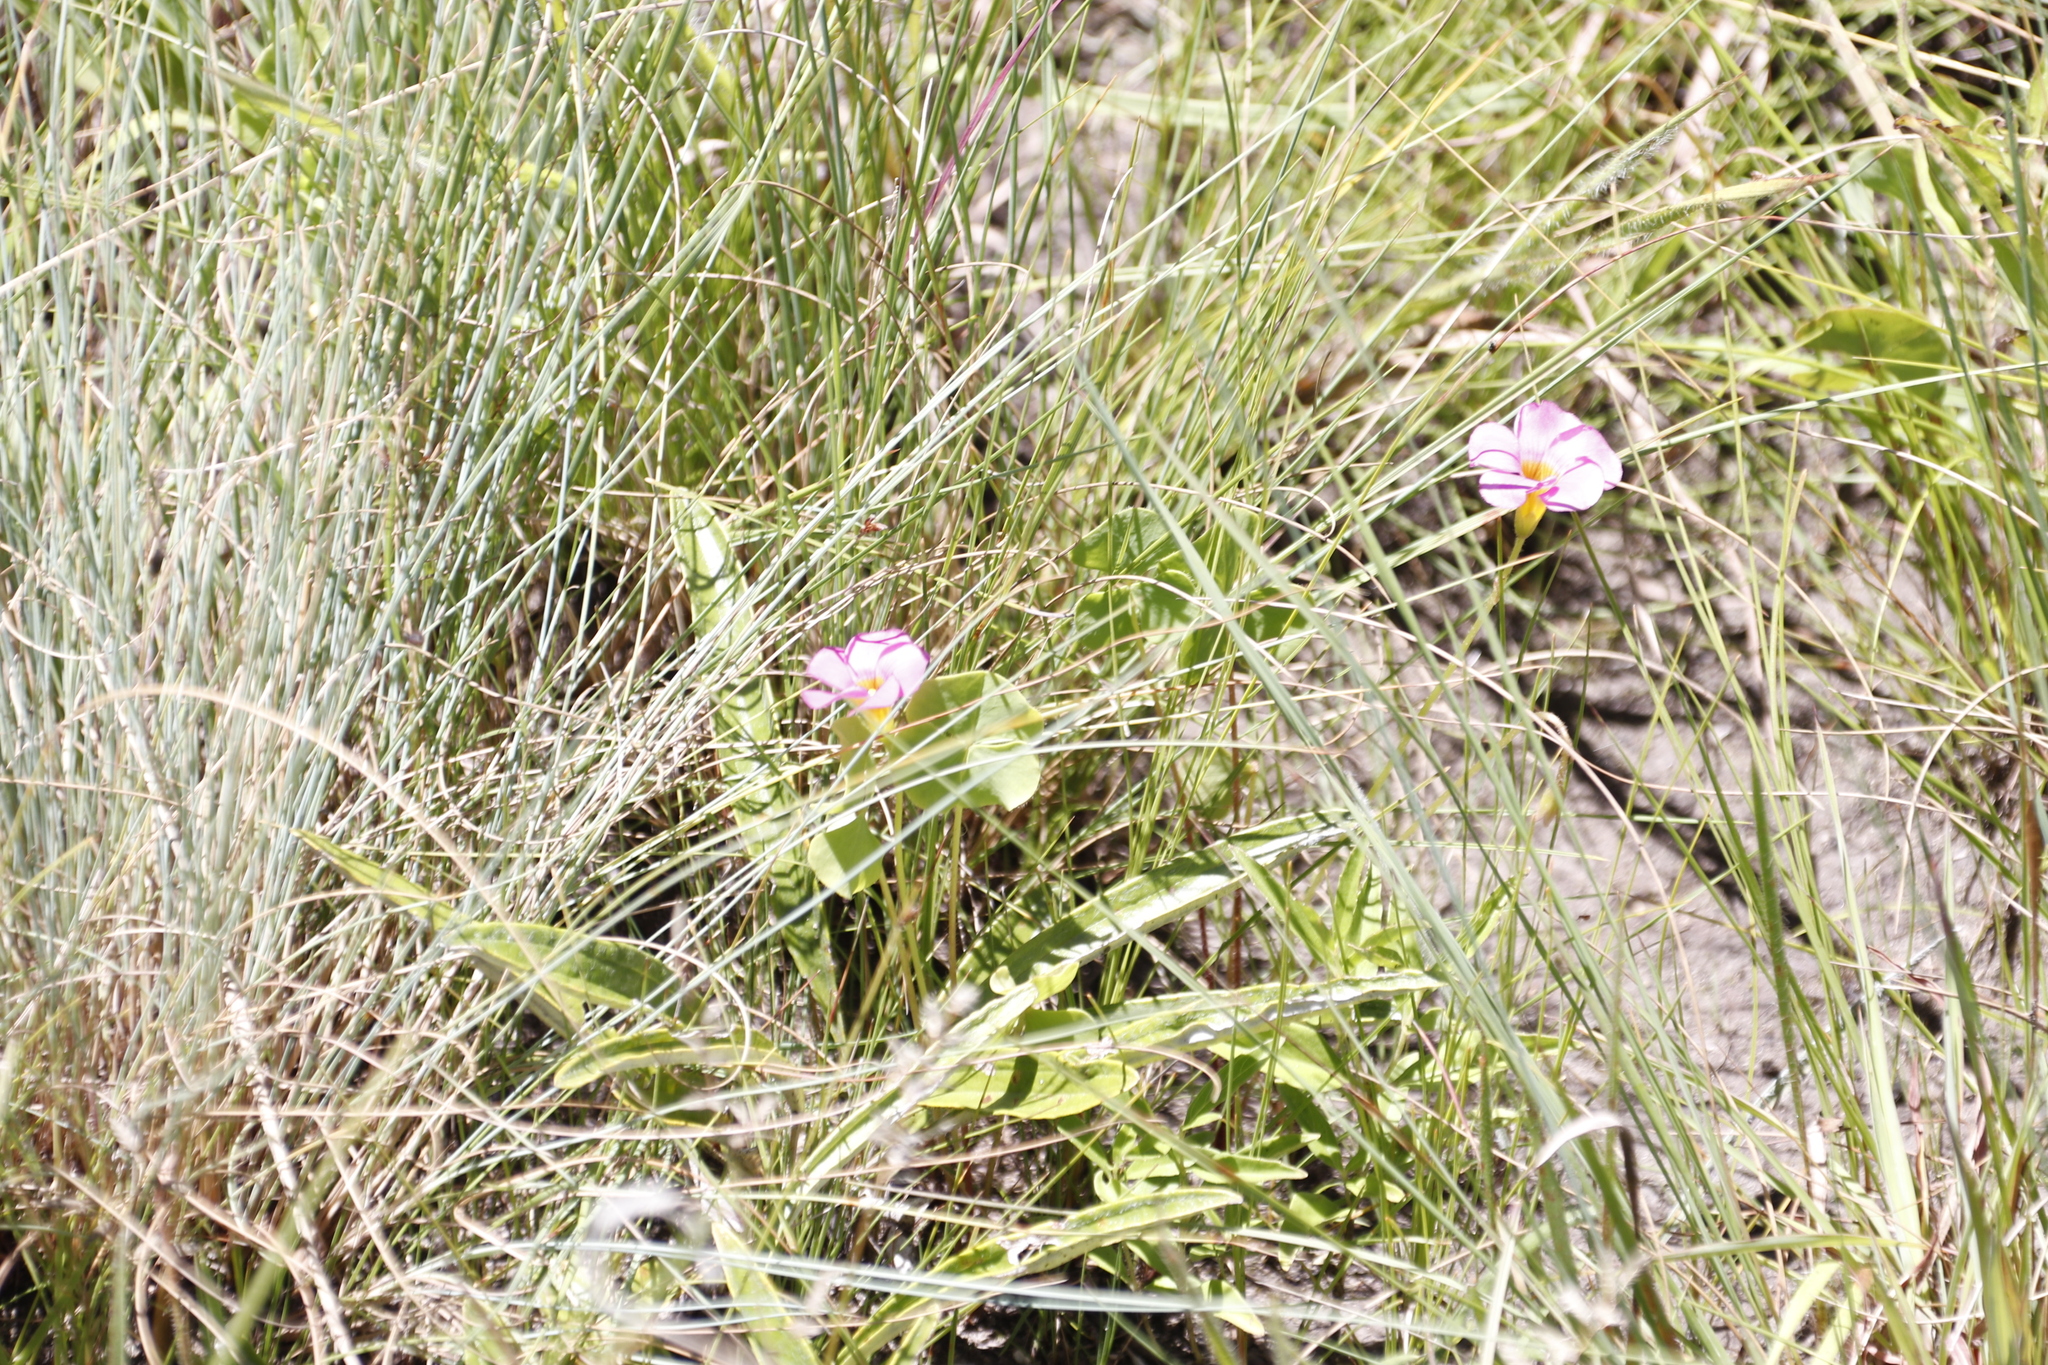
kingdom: Plantae
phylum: Tracheophyta
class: Magnoliopsida
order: Oxalidales
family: Oxalidaceae
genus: Oxalis
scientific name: Oxalis obliquifolia
